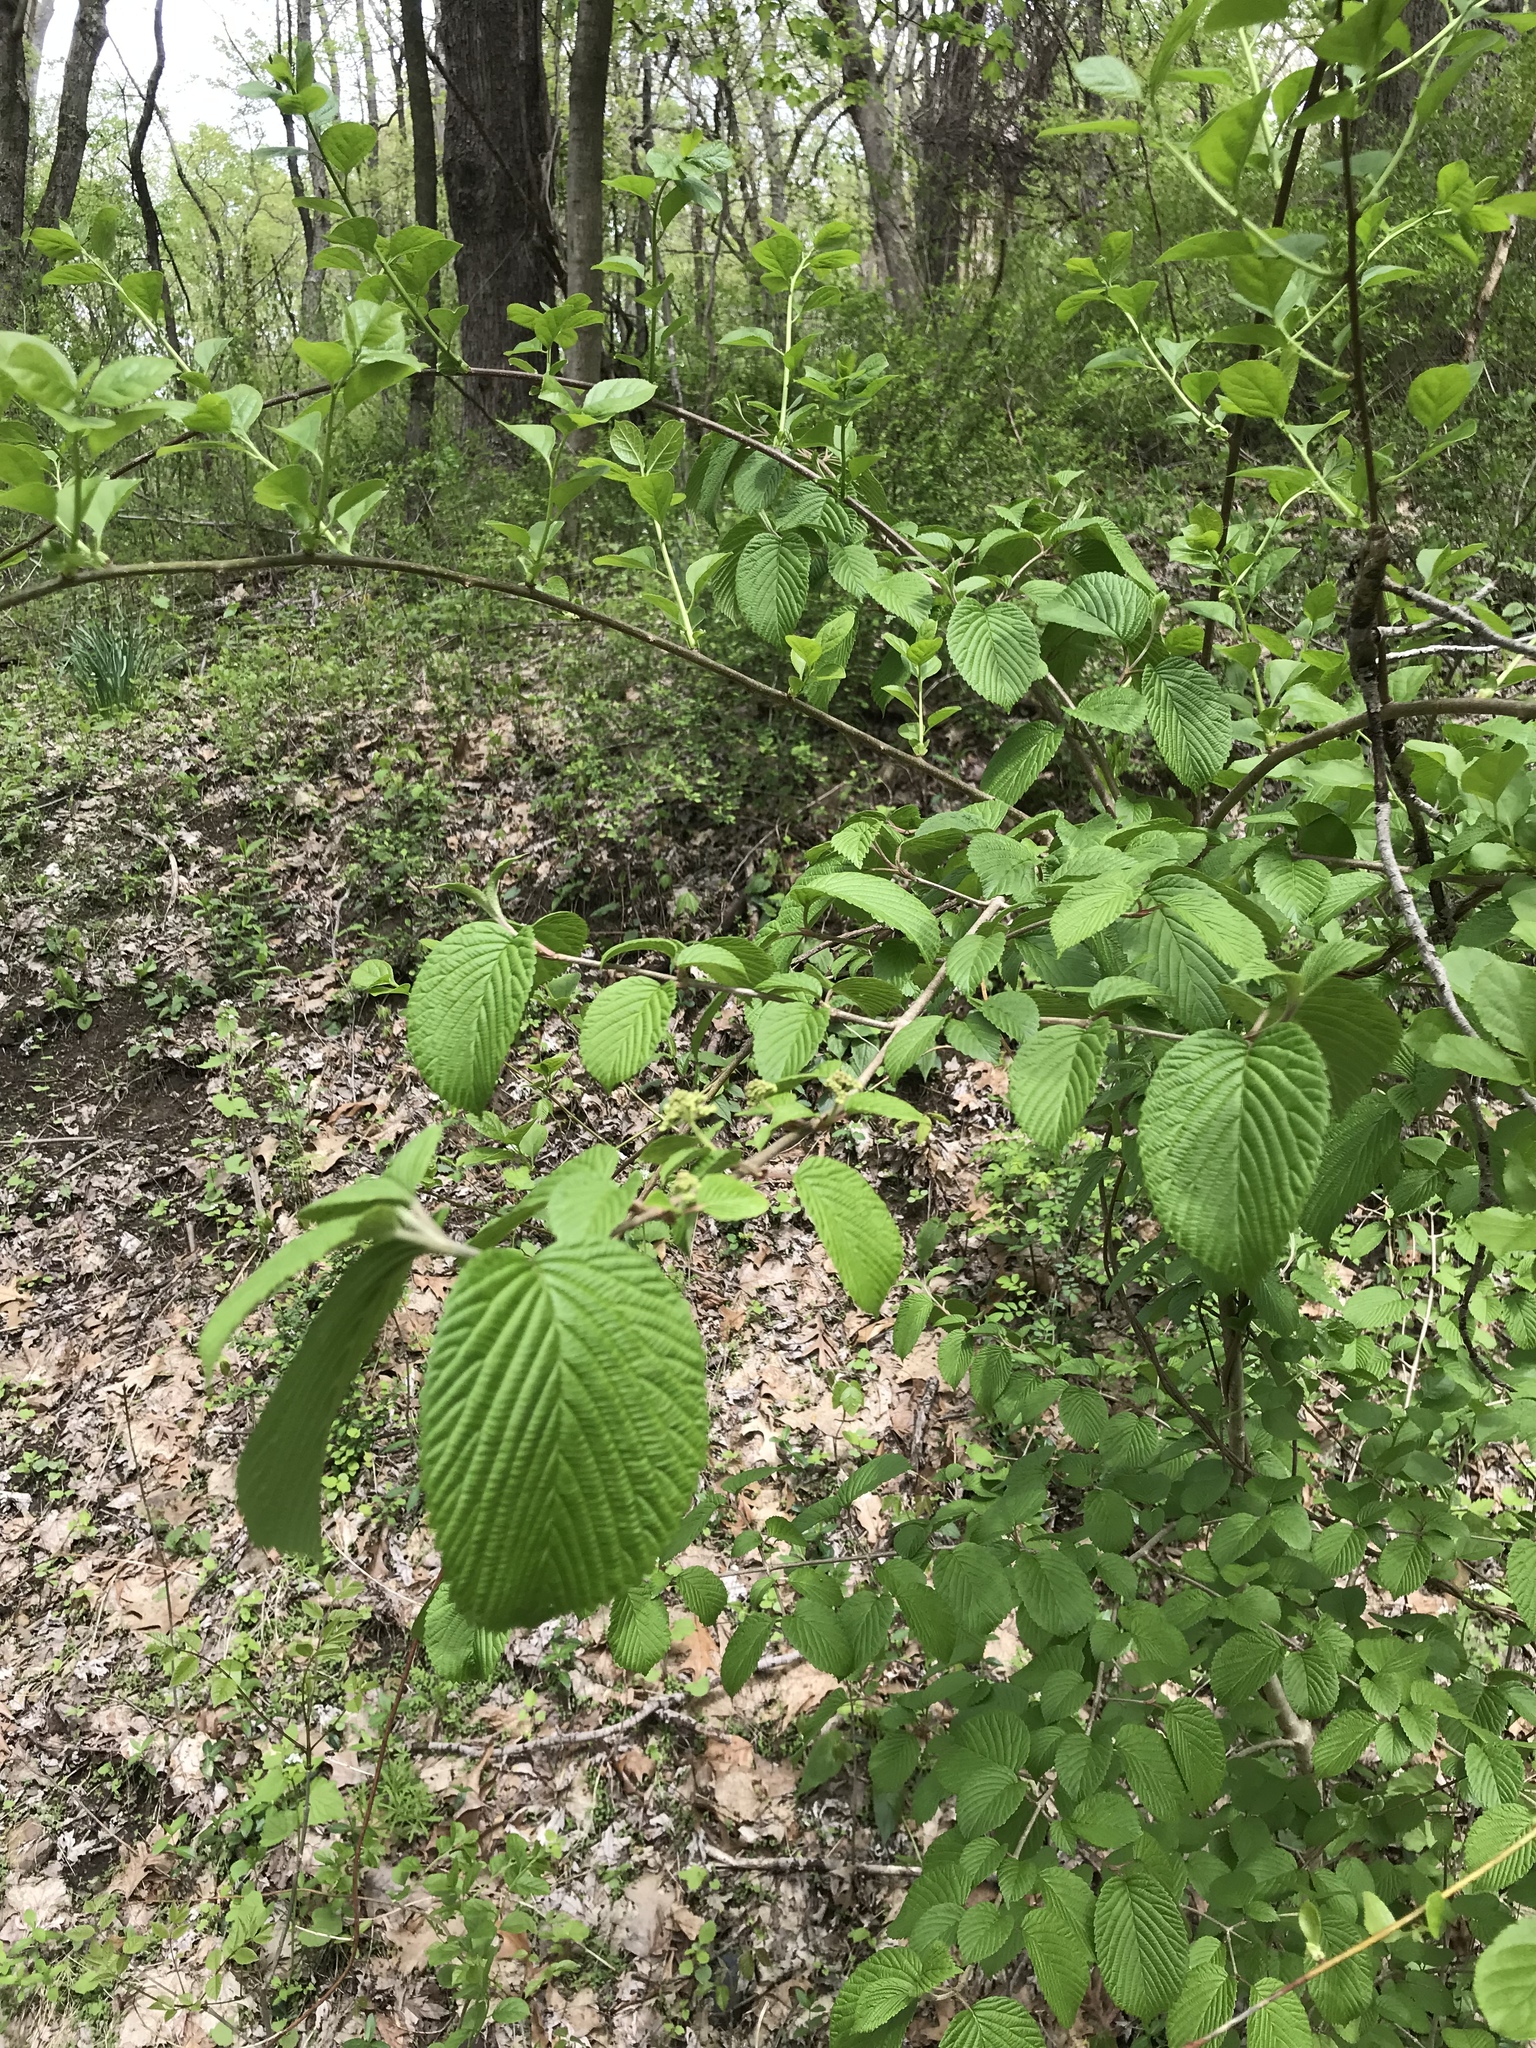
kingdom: Plantae
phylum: Tracheophyta
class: Magnoliopsida
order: Dipsacales
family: Viburnaceae
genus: Viburnum
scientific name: Viburnum plicatum
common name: Japanese snowball
